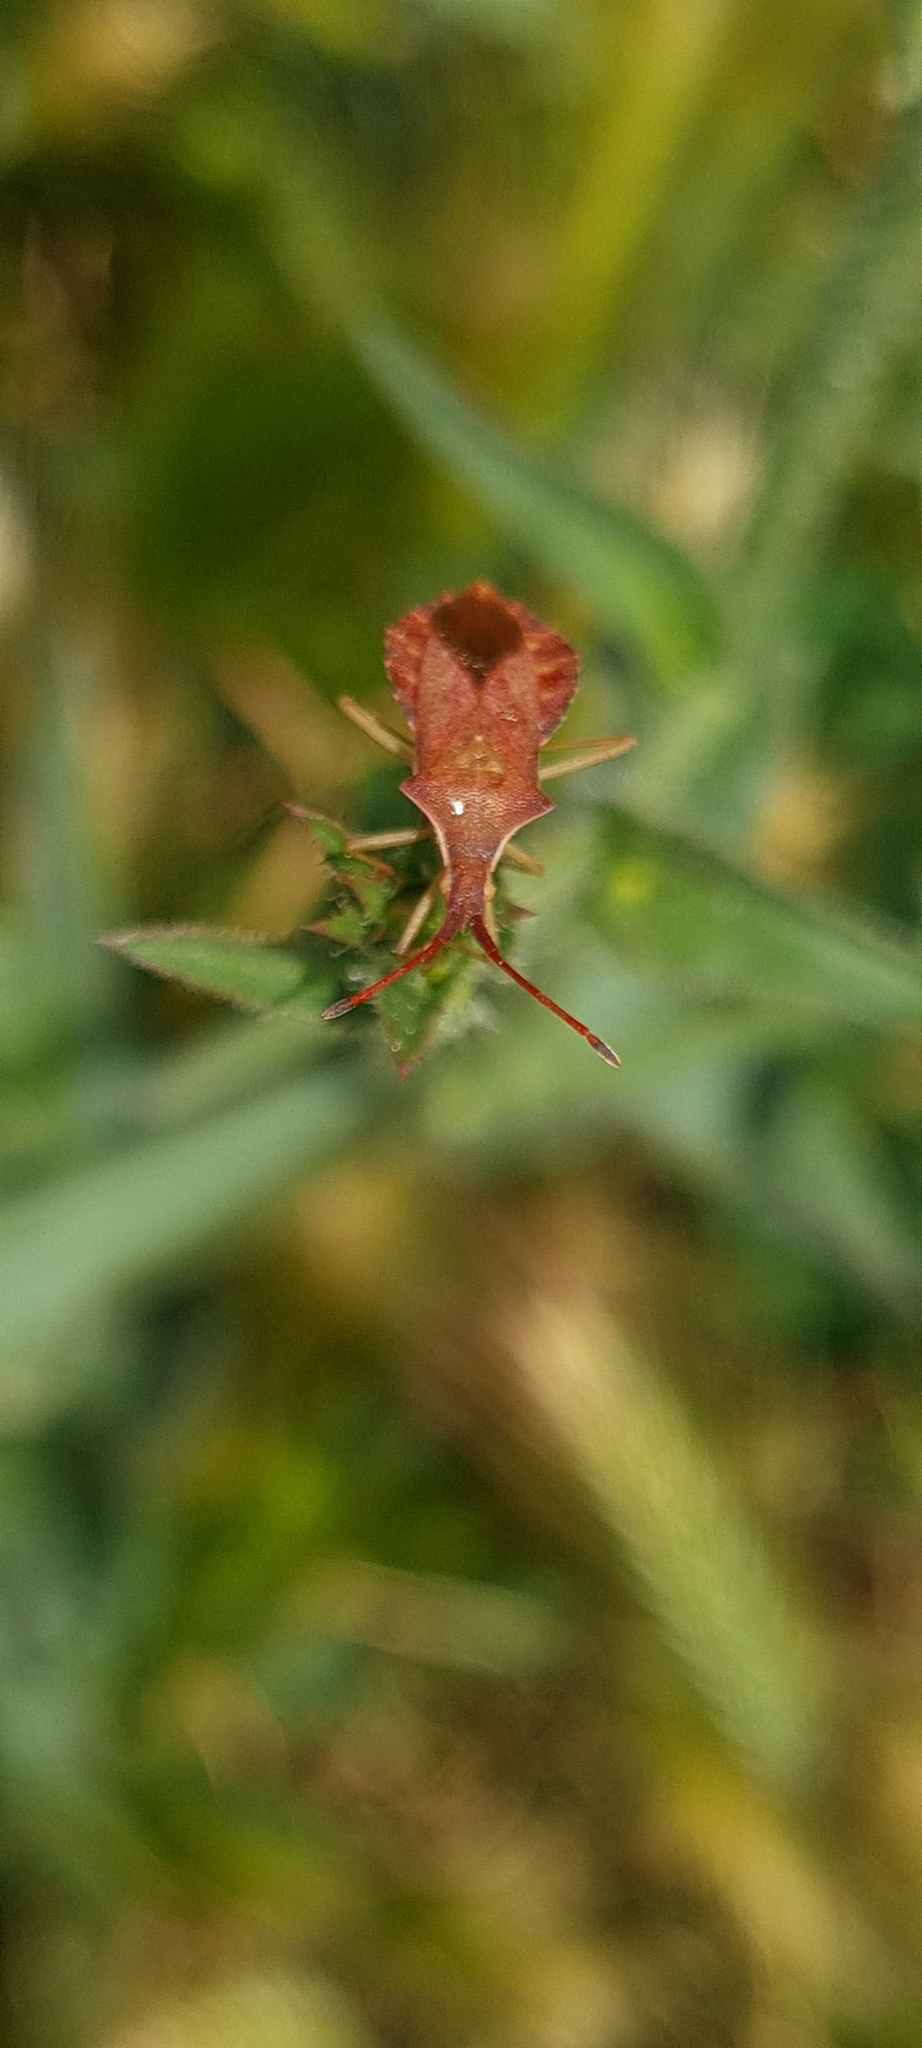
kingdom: Animalia
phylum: Arthropoda
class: Insecta
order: Hemiptera
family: Coreidae
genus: Haploprocta
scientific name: Haploprocta sulcicornis
